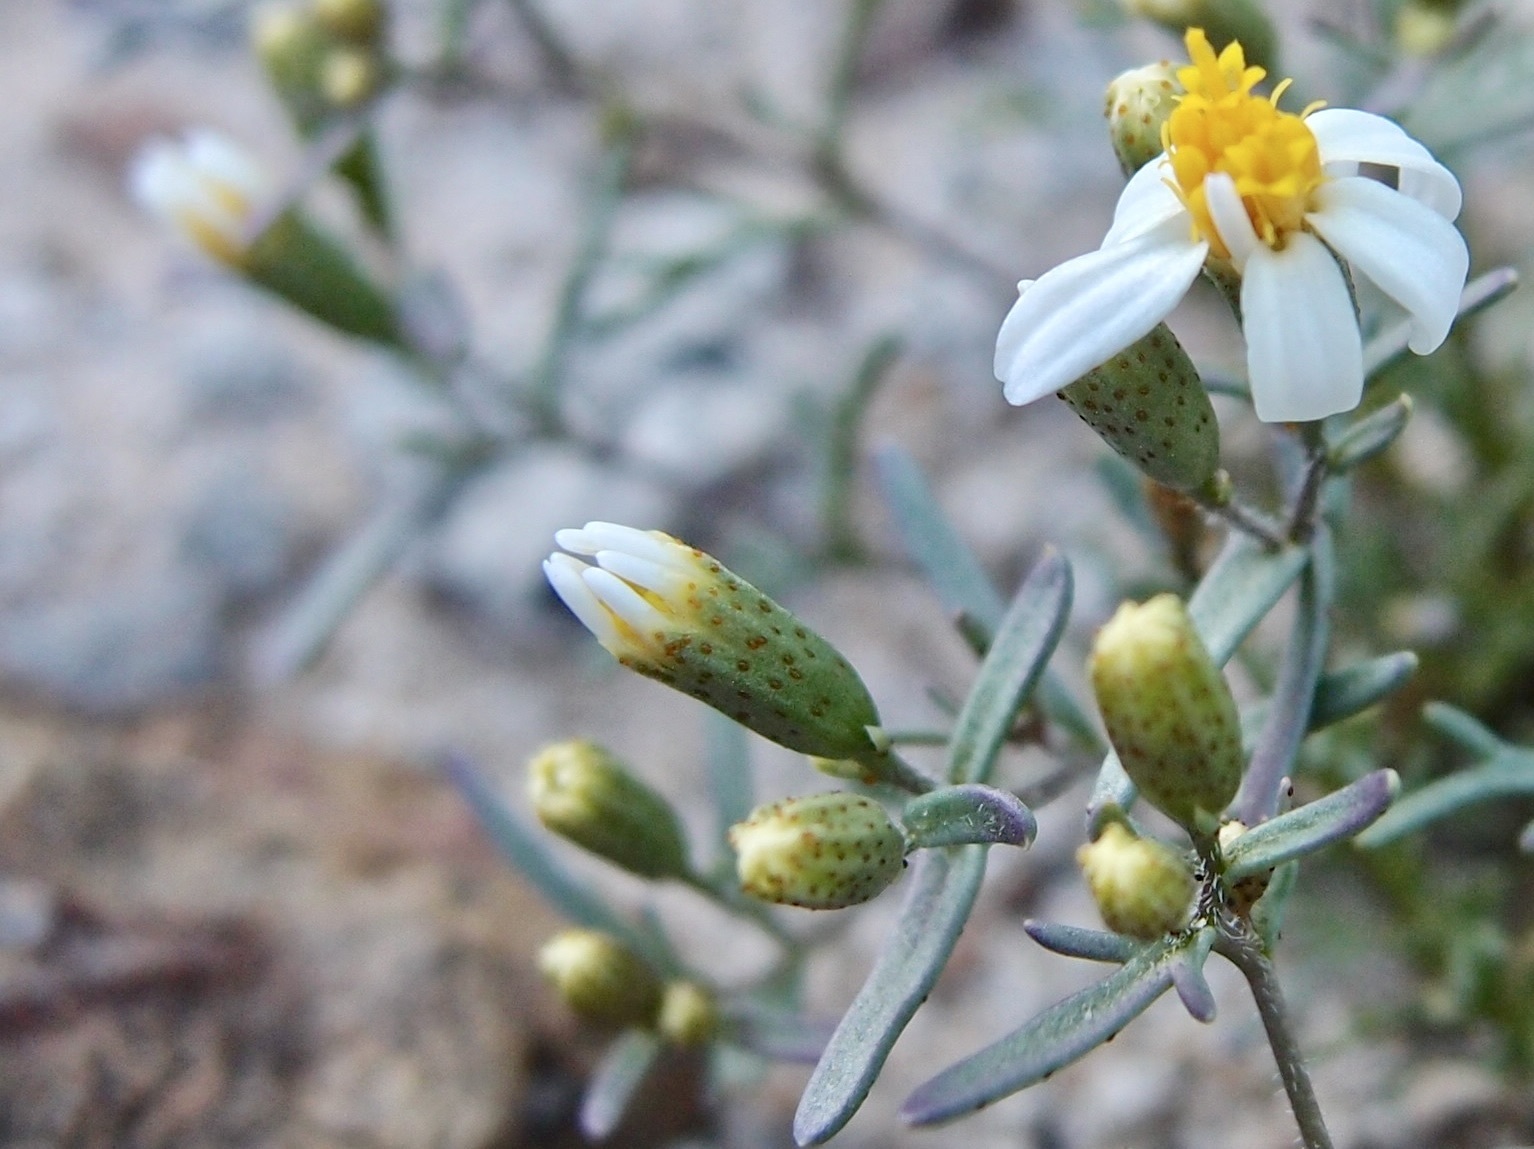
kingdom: Plantae
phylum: Tracheophyta
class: Magnoliopsida
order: Asterales
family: Asteraceae
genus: Thymophylla
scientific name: Thymophylla concinna
